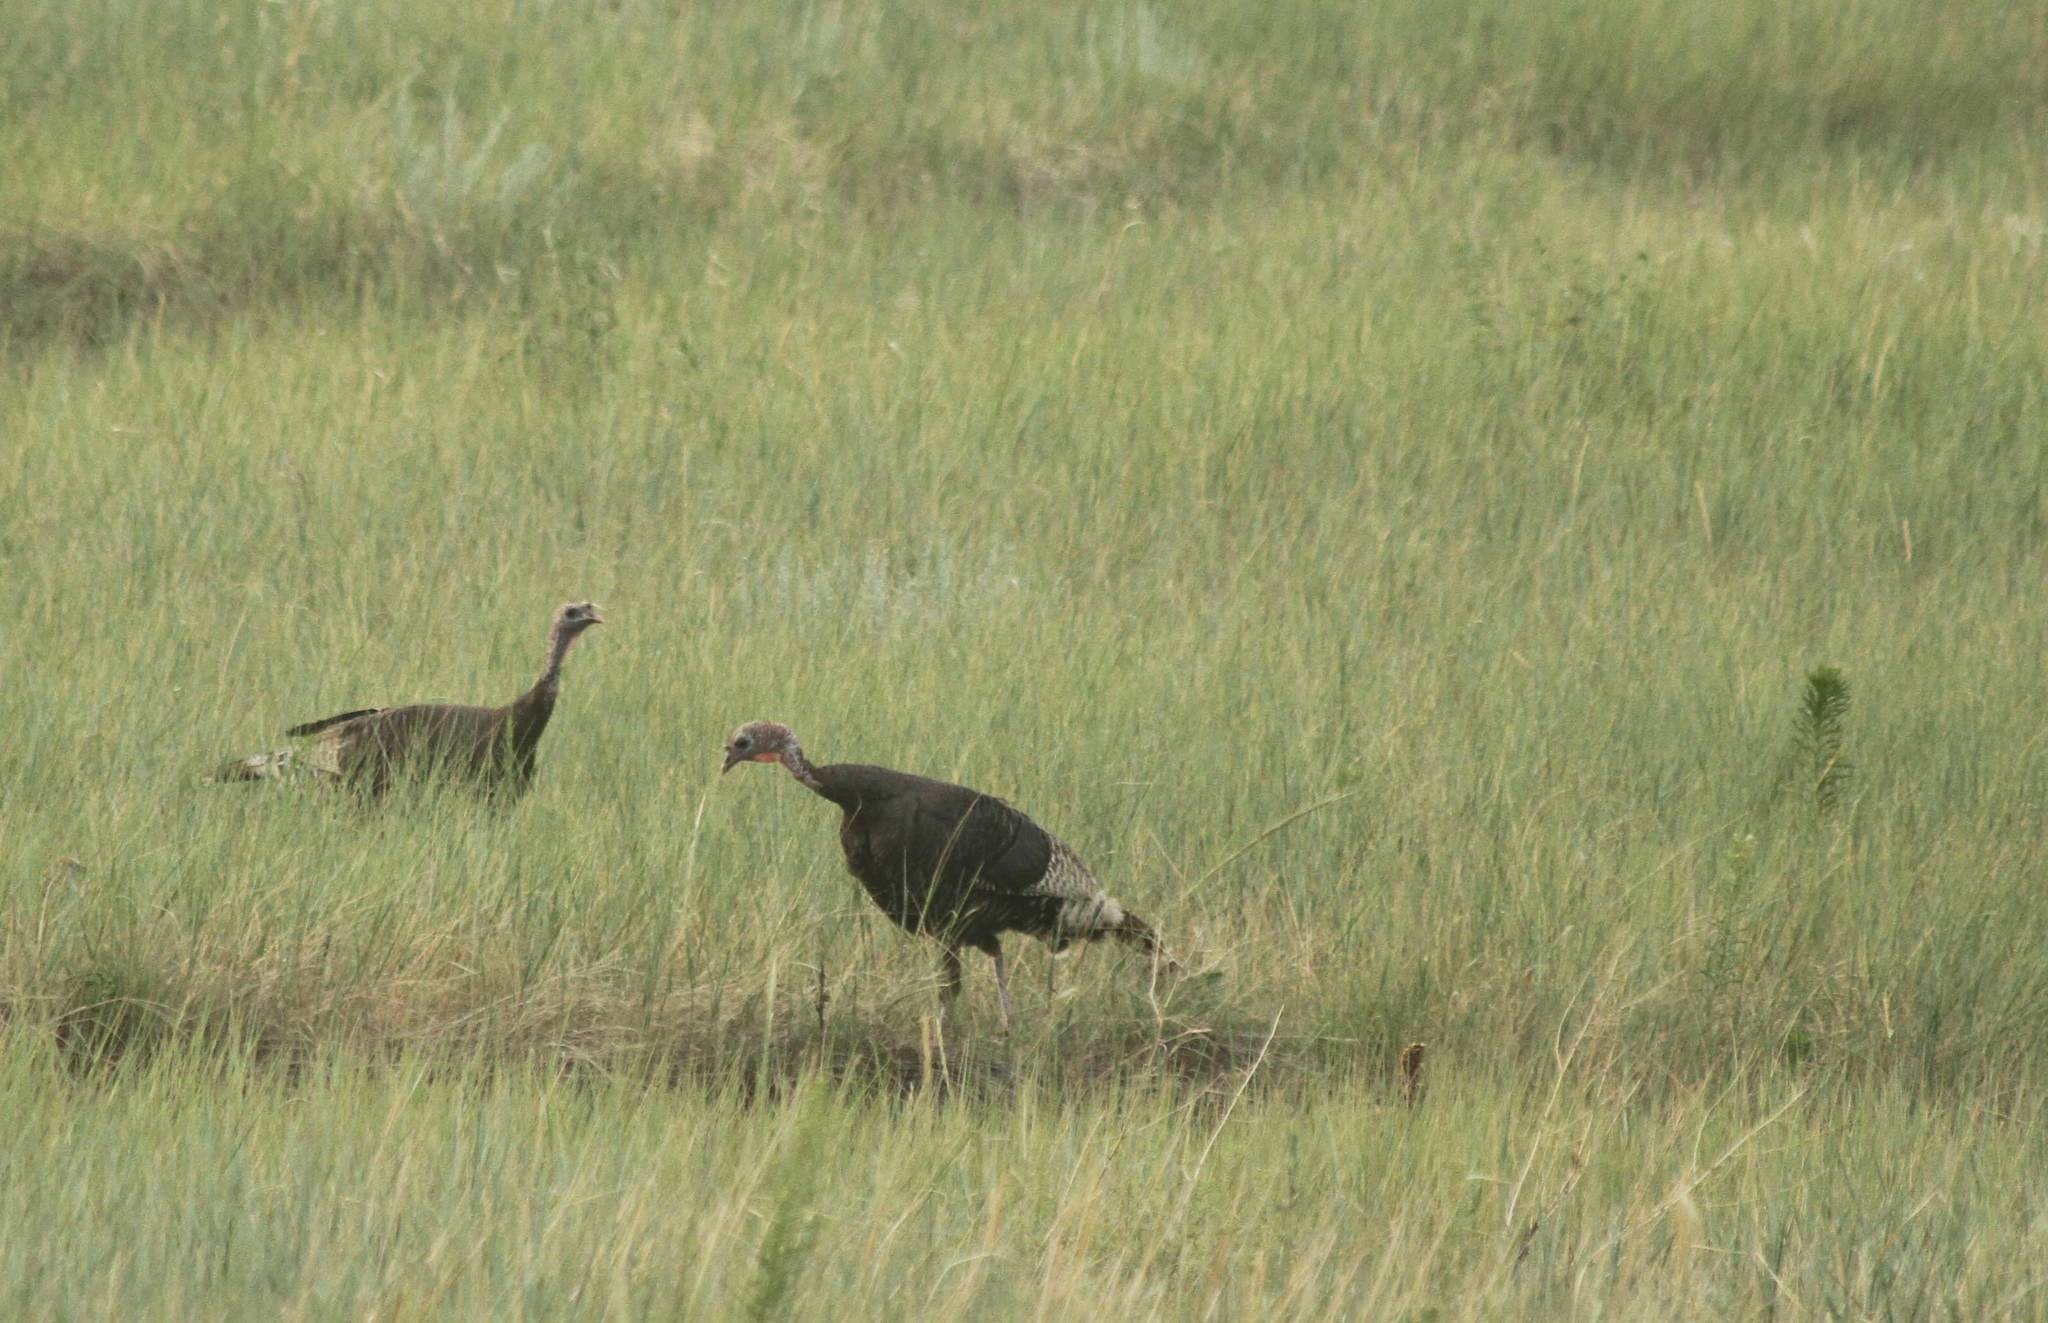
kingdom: Animalia
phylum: Chordata
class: Aves
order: Galliformes
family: Phasianidae
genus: Meleagris
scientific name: Meleagris gallopavo
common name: Wild turkey
